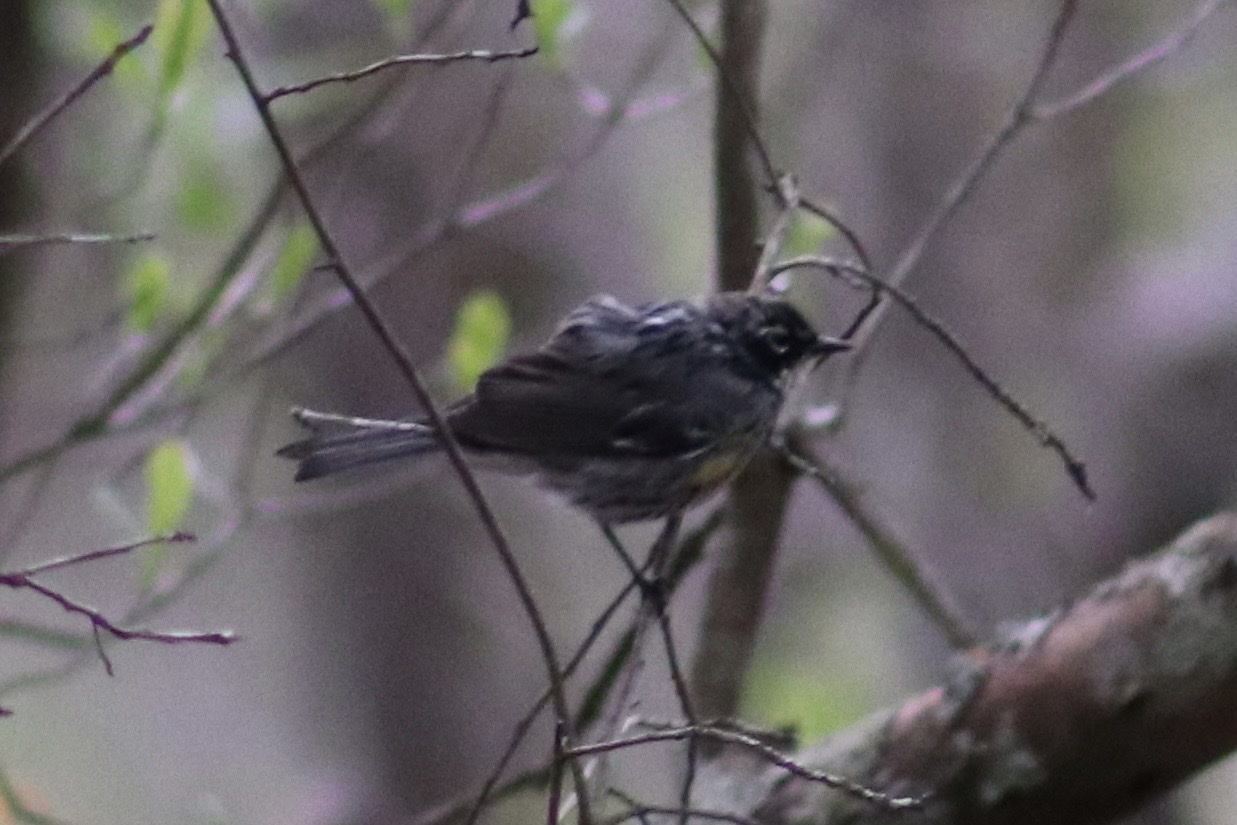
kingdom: Animalia
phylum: Chordata
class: Aves
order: Passeriformes
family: Parulidae
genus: Setophaga
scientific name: Setophaga coronata
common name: Myrtle warbler
